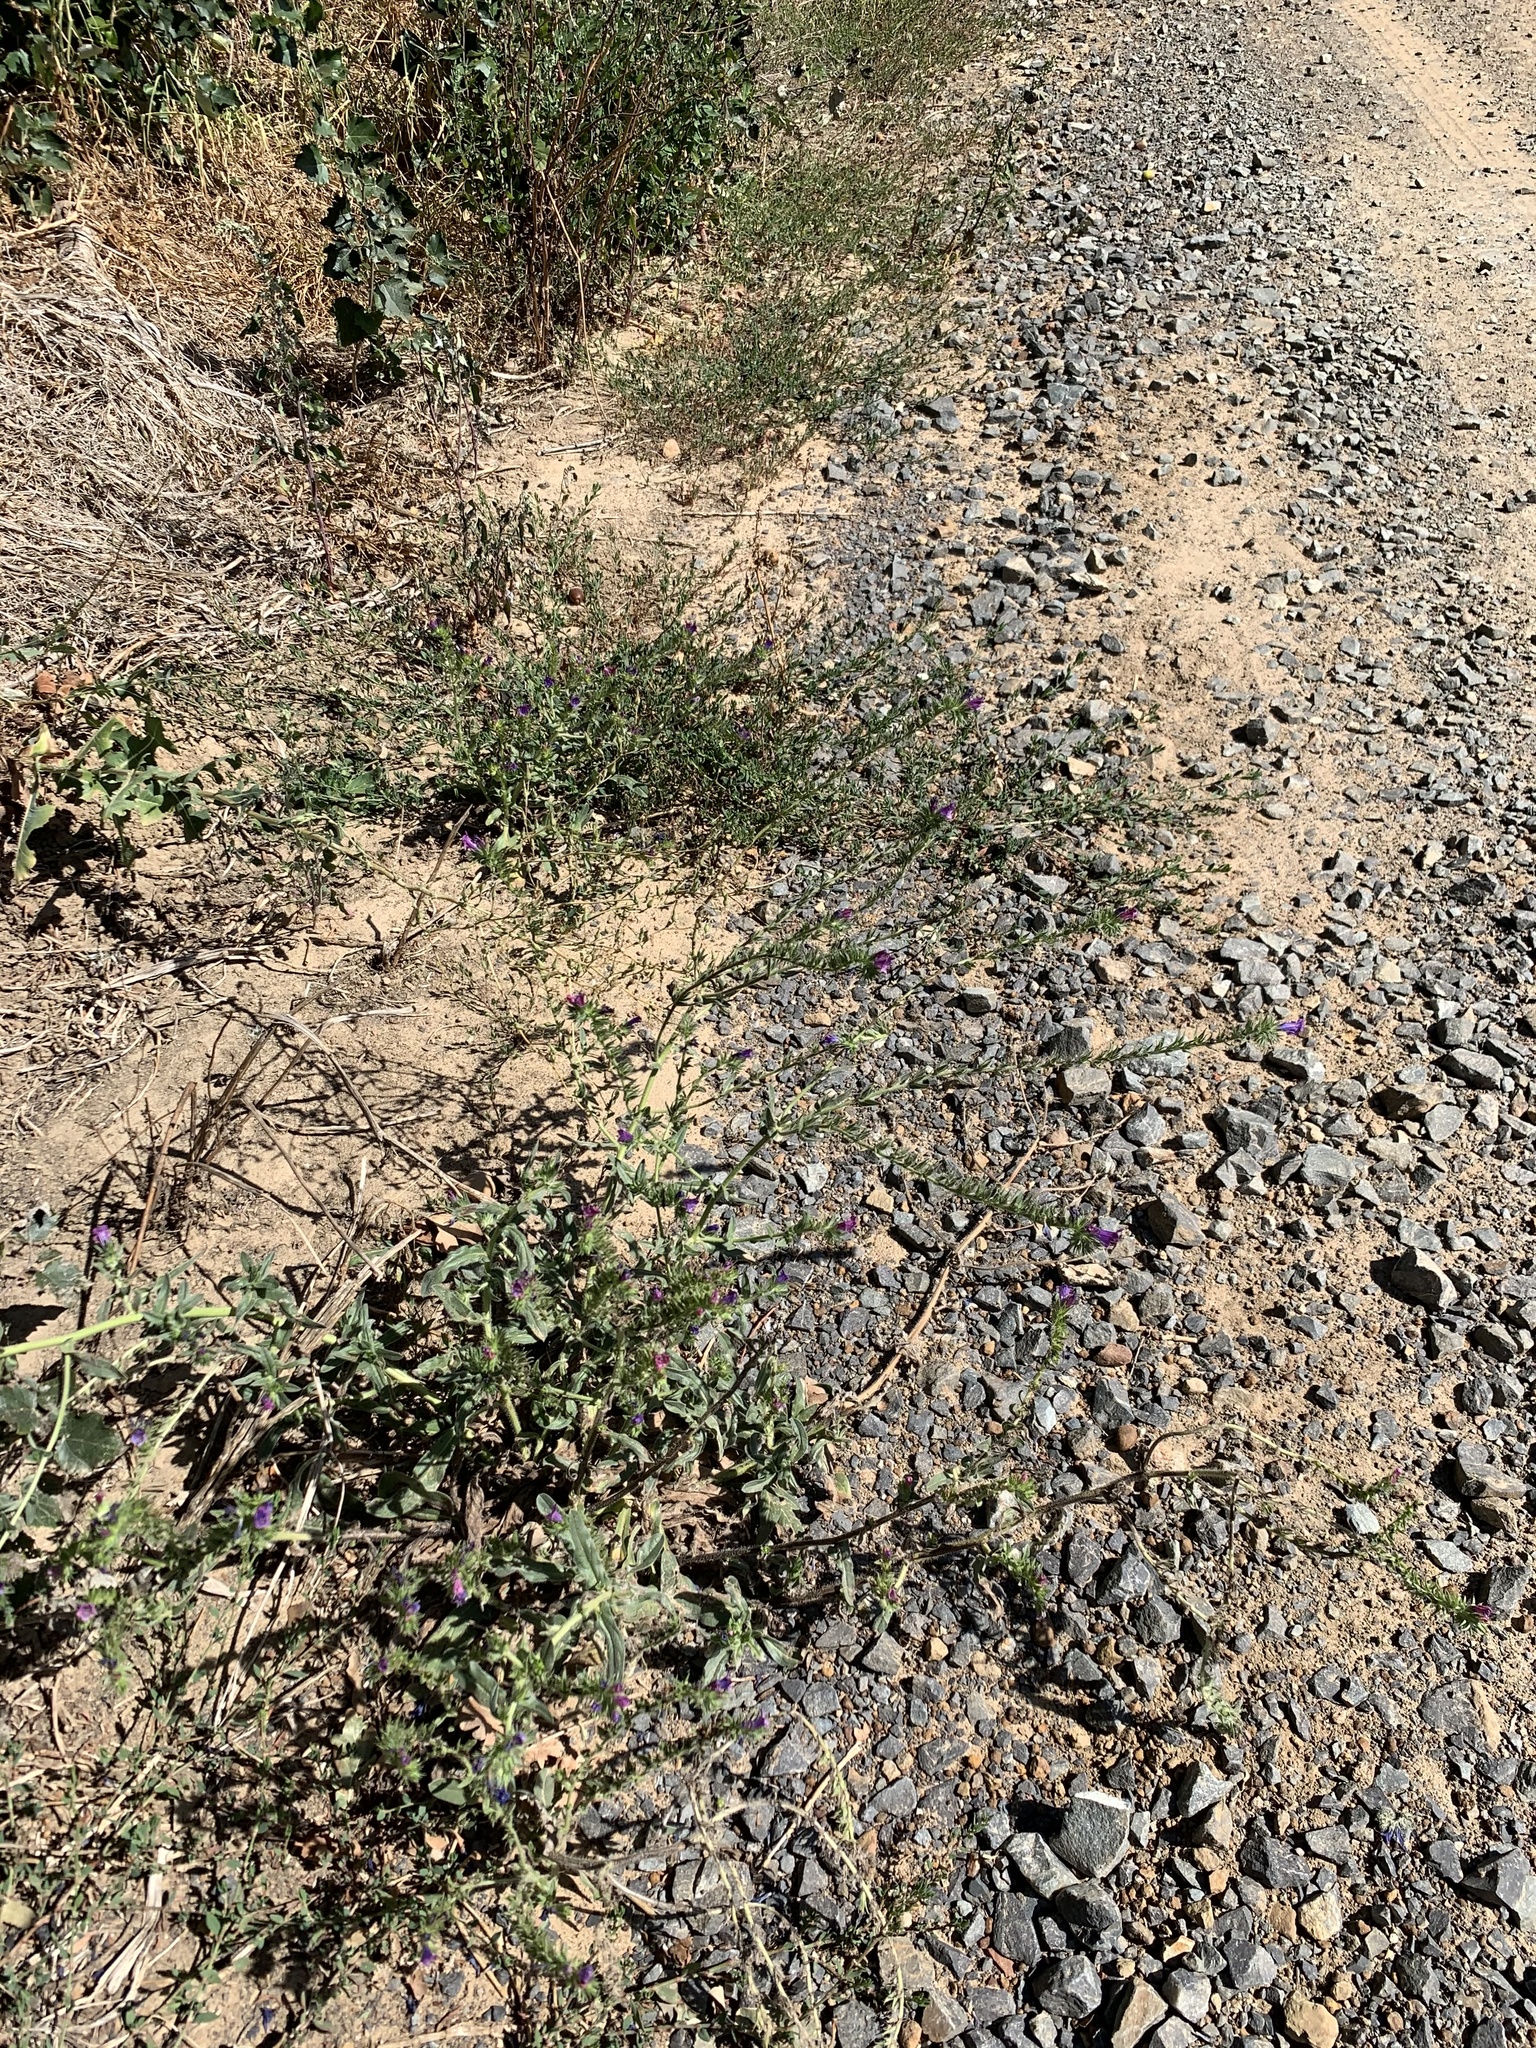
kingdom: Plantae
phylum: Tracheophyta
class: Magnoliopsida
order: Boraginales
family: Boraginaceae
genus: Echium
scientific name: Echium plantagineum
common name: Purple viper's-bugloss
